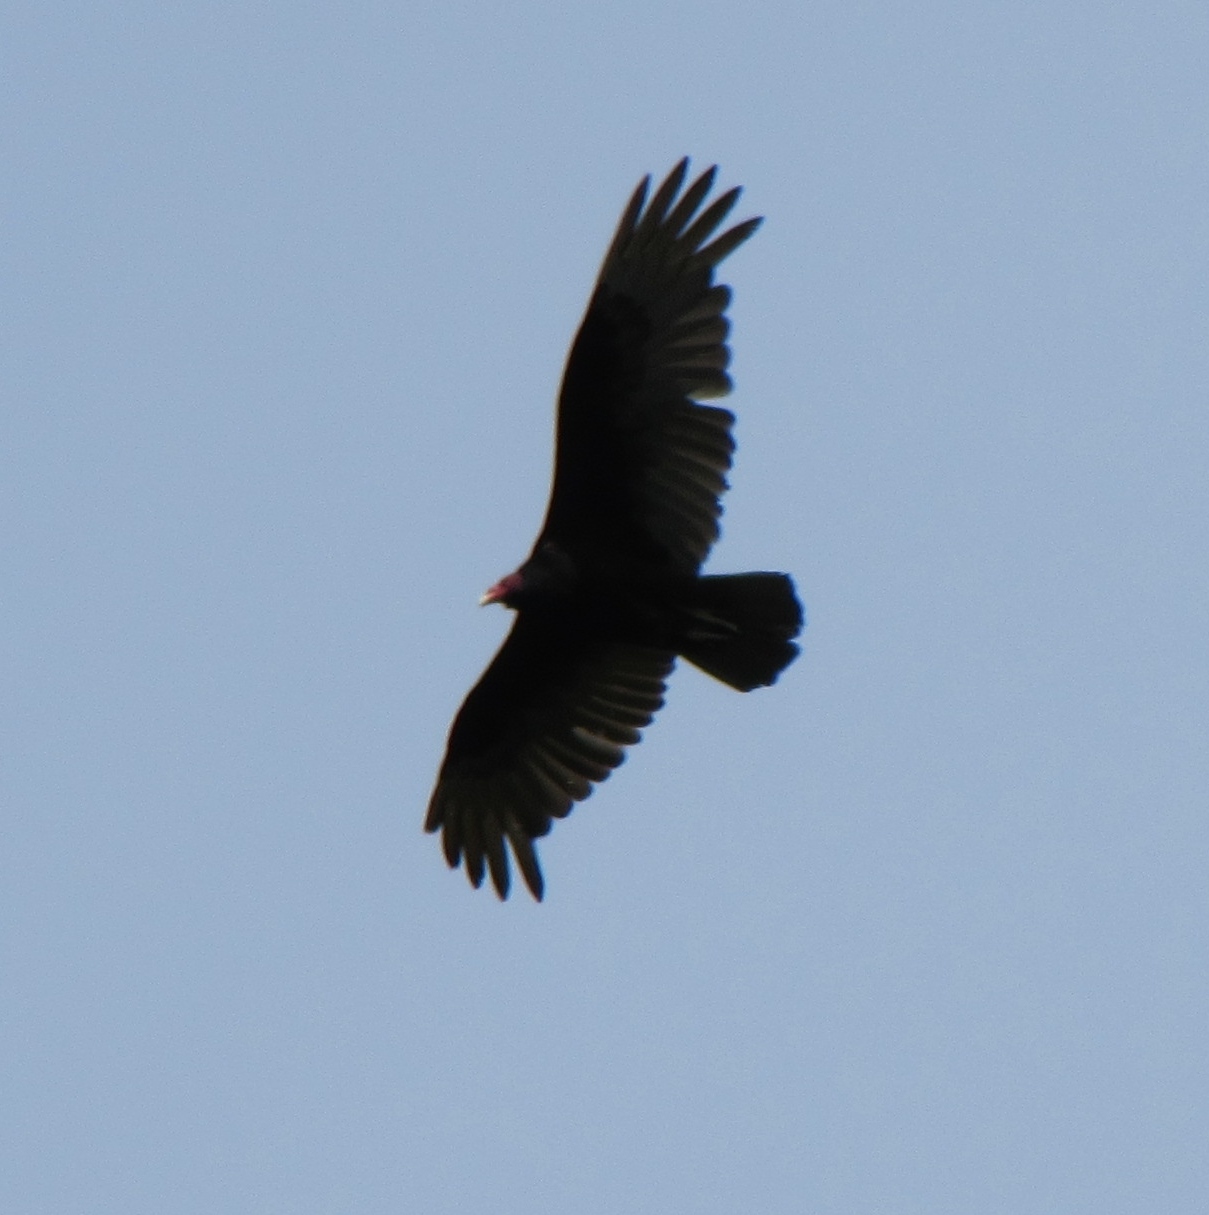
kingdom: Animalia
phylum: Chordata
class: Aves
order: Accipitriformes
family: Cathartidae
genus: Cathartes
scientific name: Cathartes aura
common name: Turkey vulture
